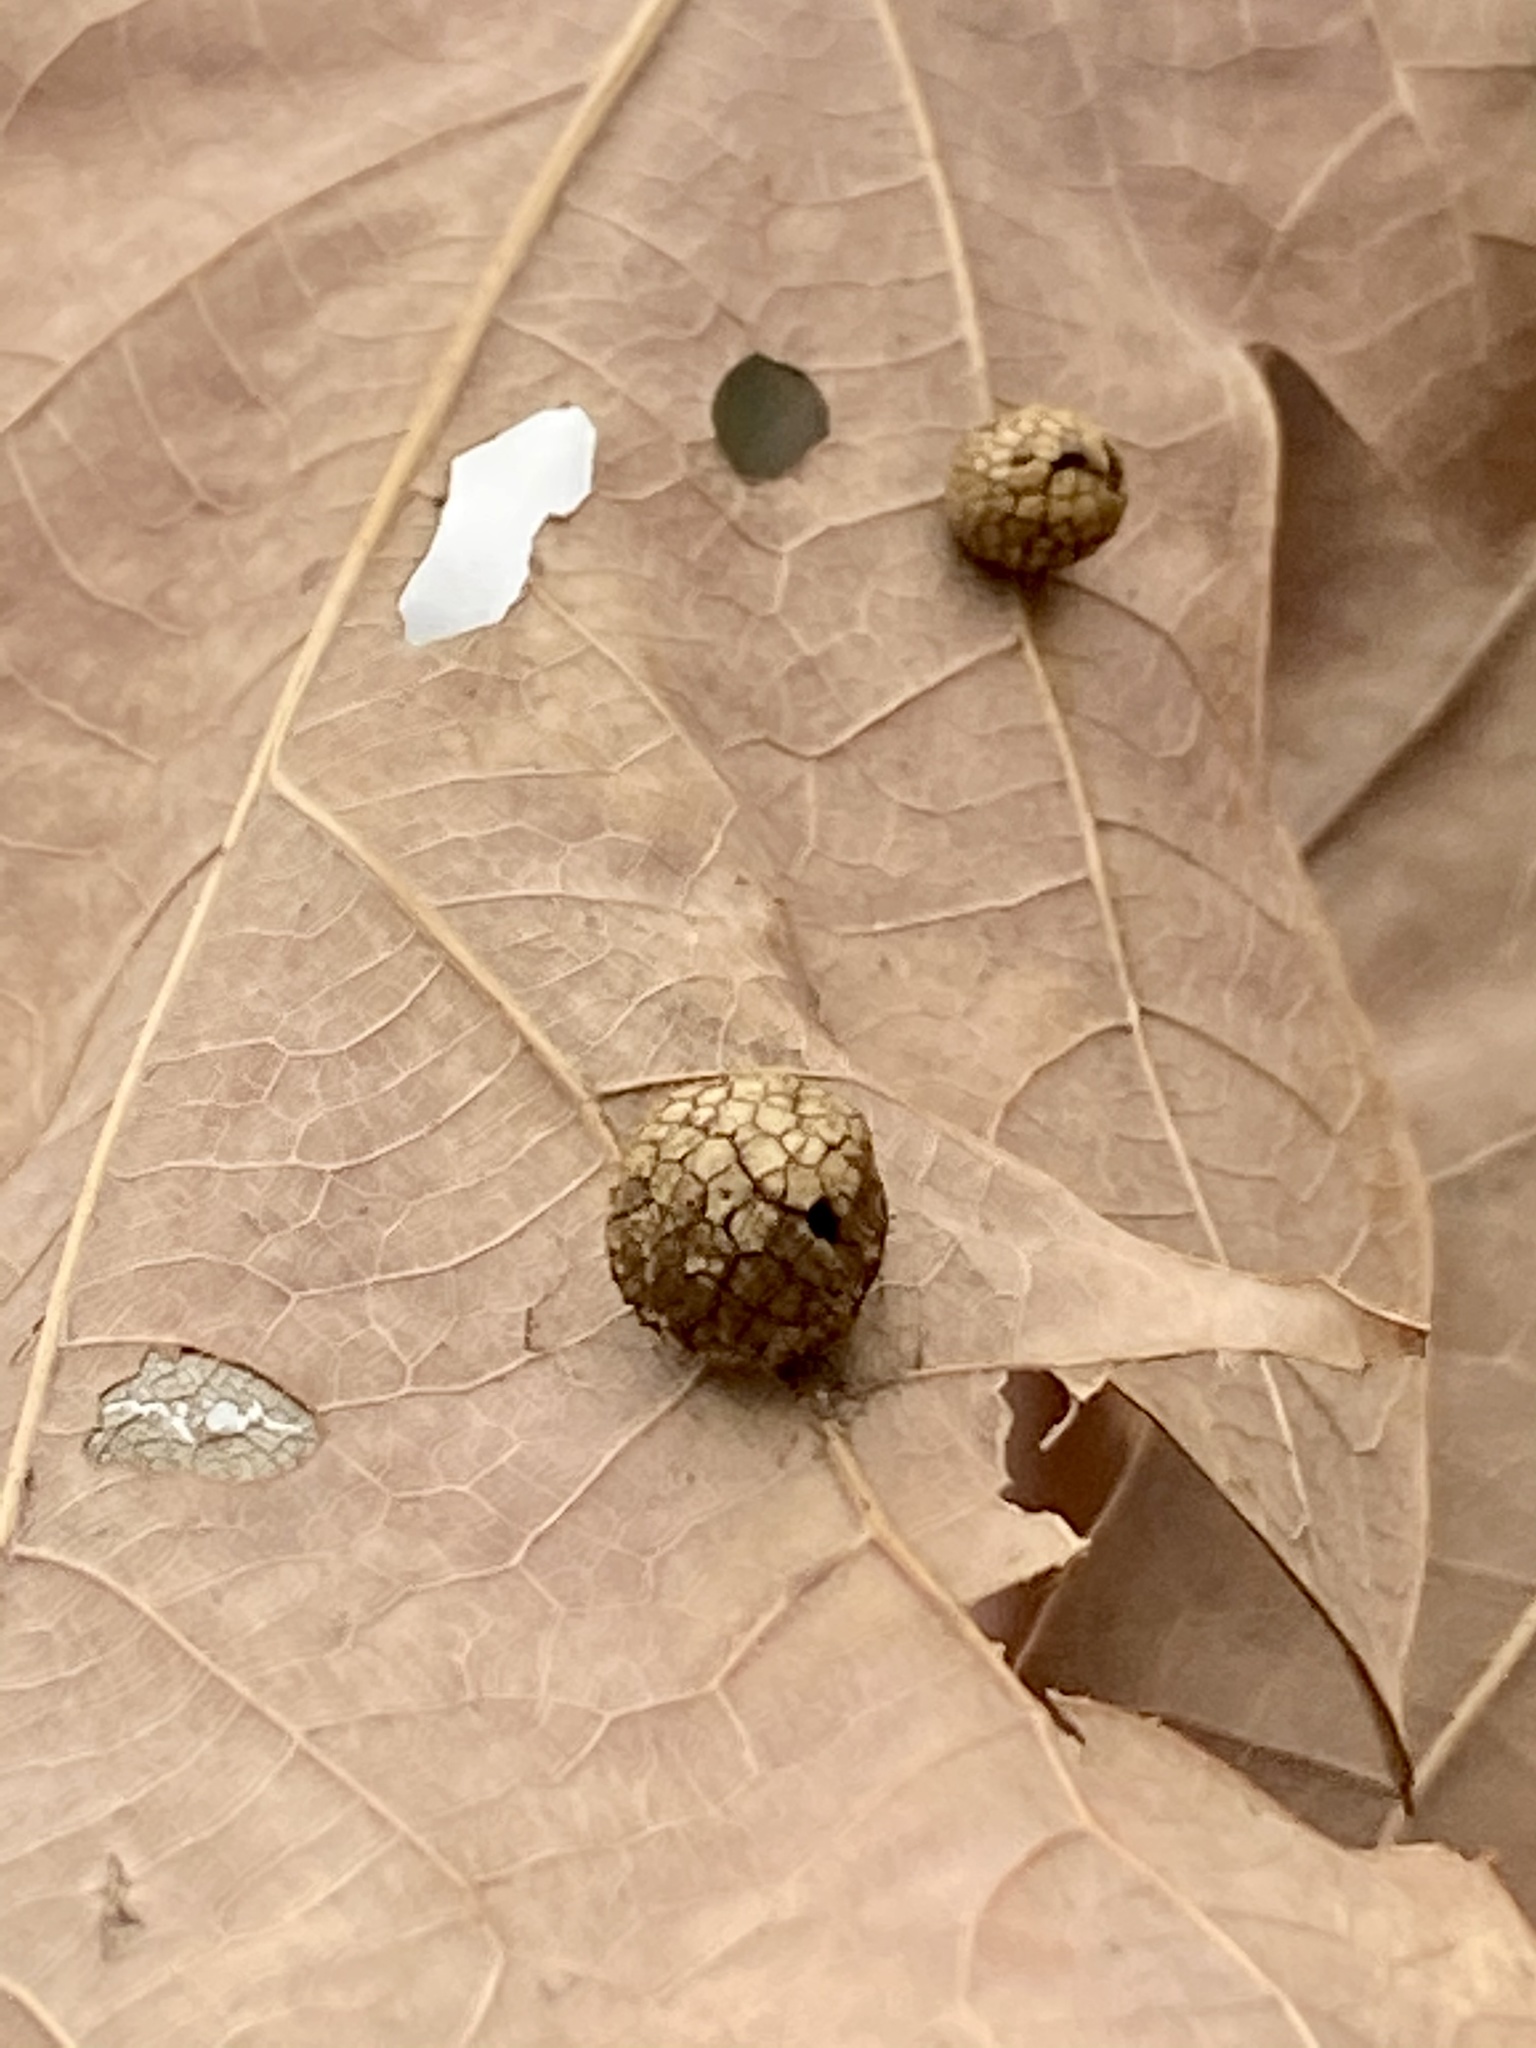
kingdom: Animalia
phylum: Arthropoda
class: Insecta
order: Hymenoptera
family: Cynipidae
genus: Acraspis
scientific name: Acraspis
